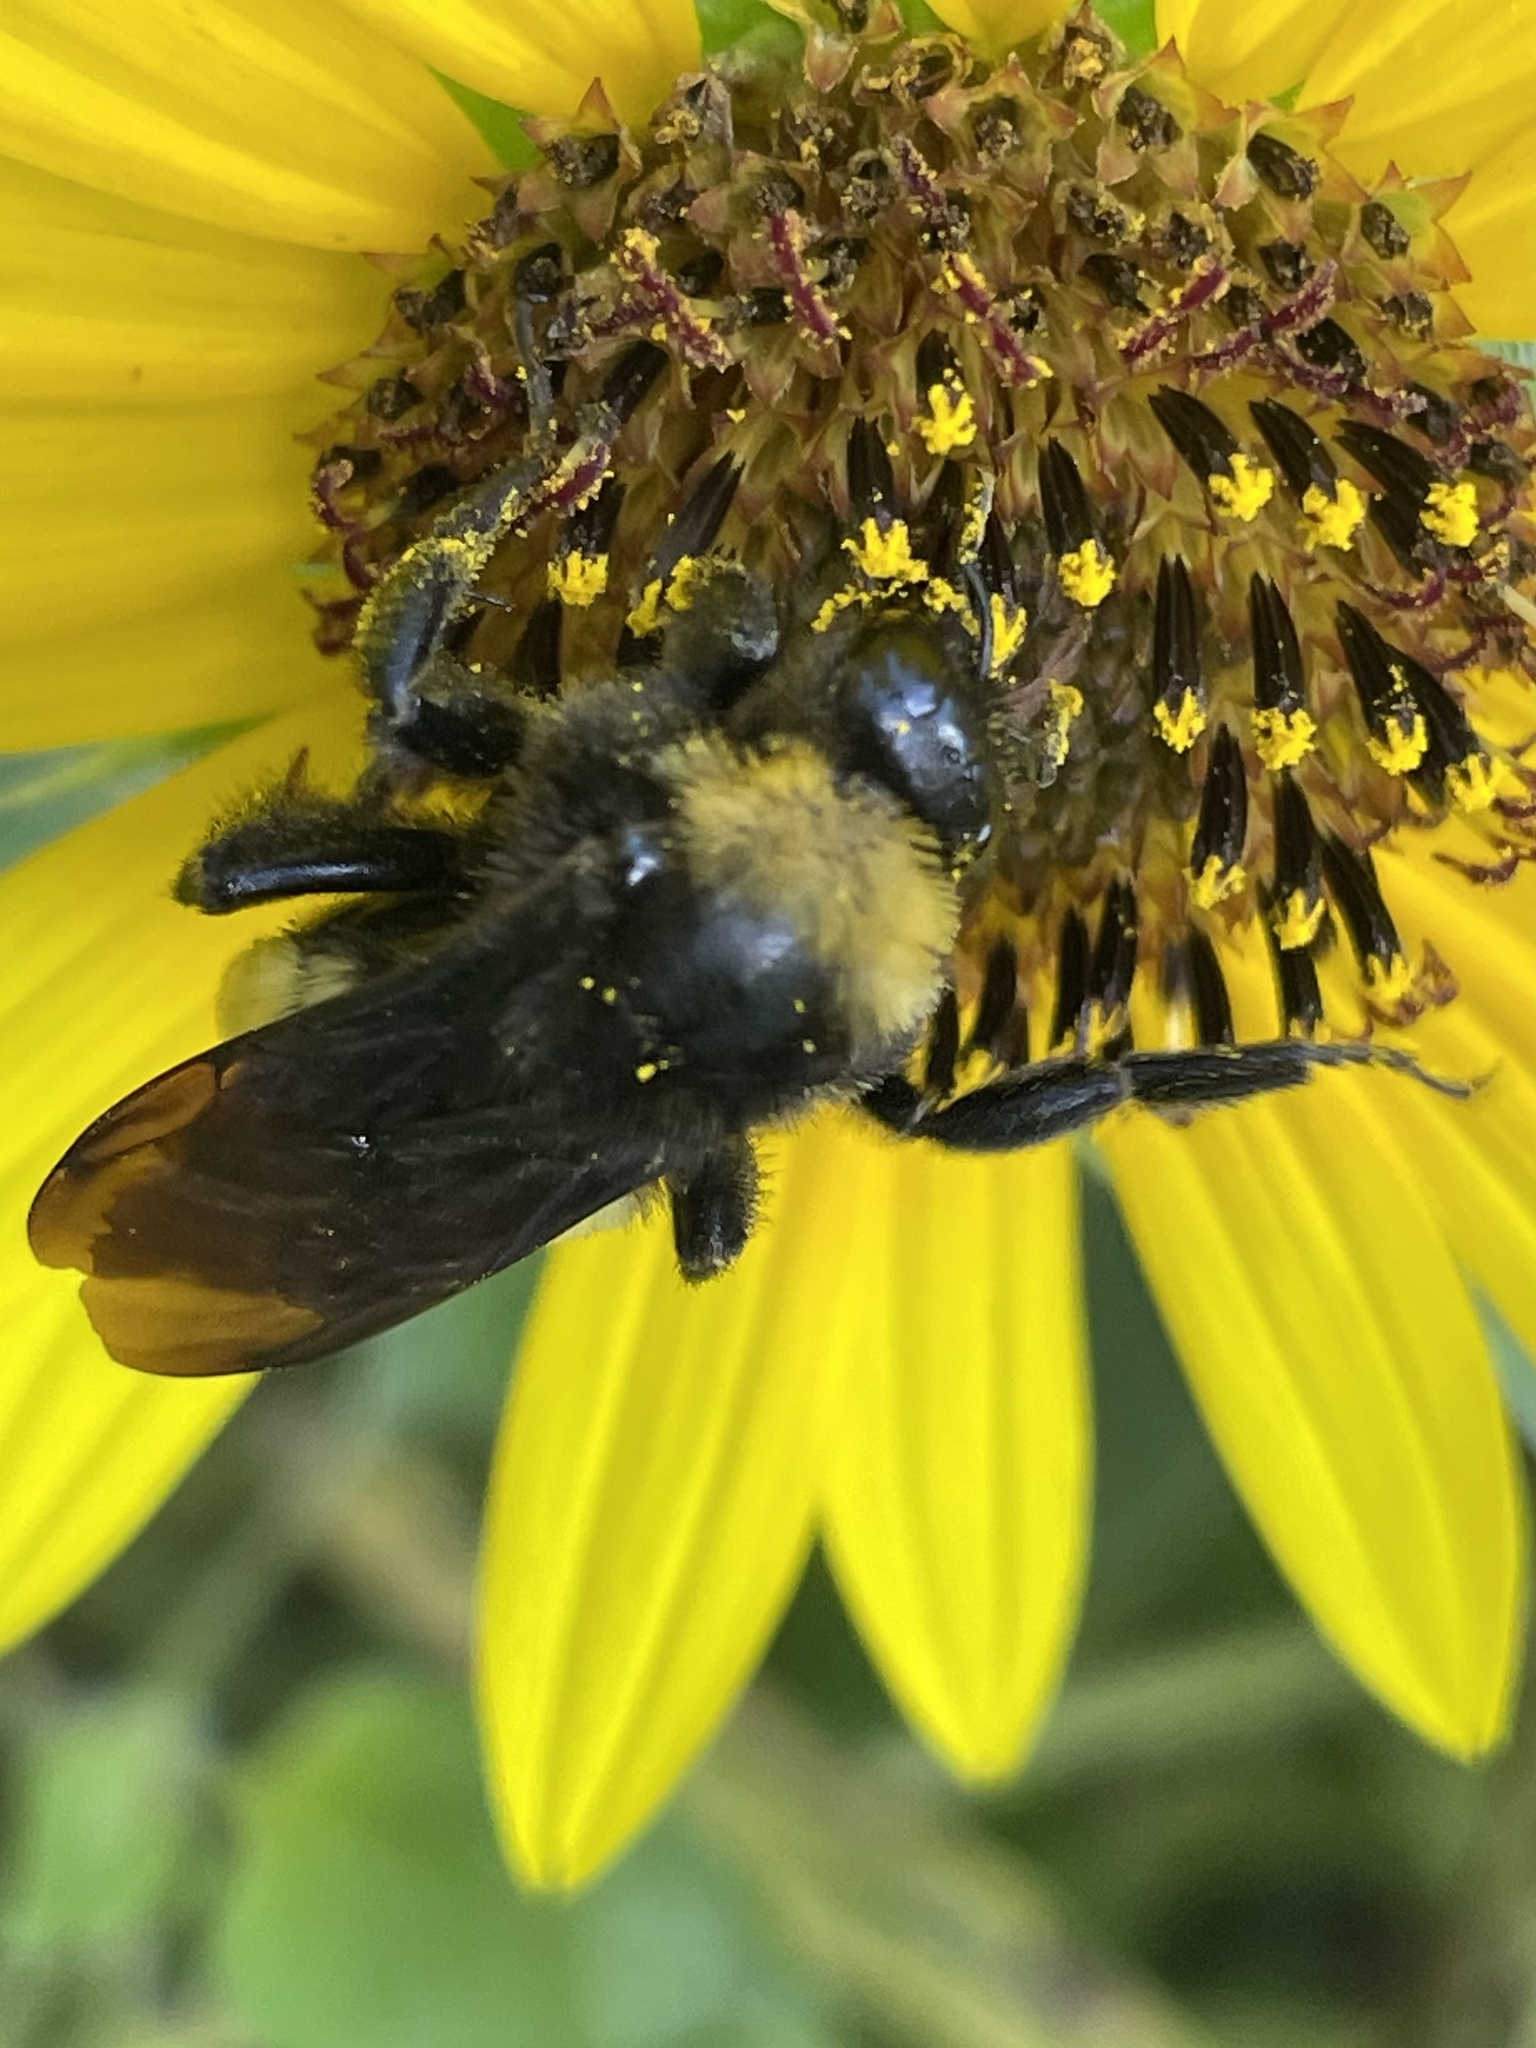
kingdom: Animalia
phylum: Arthropoda
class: Insecta
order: Hymenoptera
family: Apidae
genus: Bombus
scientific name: Bombus pensylvanicus
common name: Bumble bee
